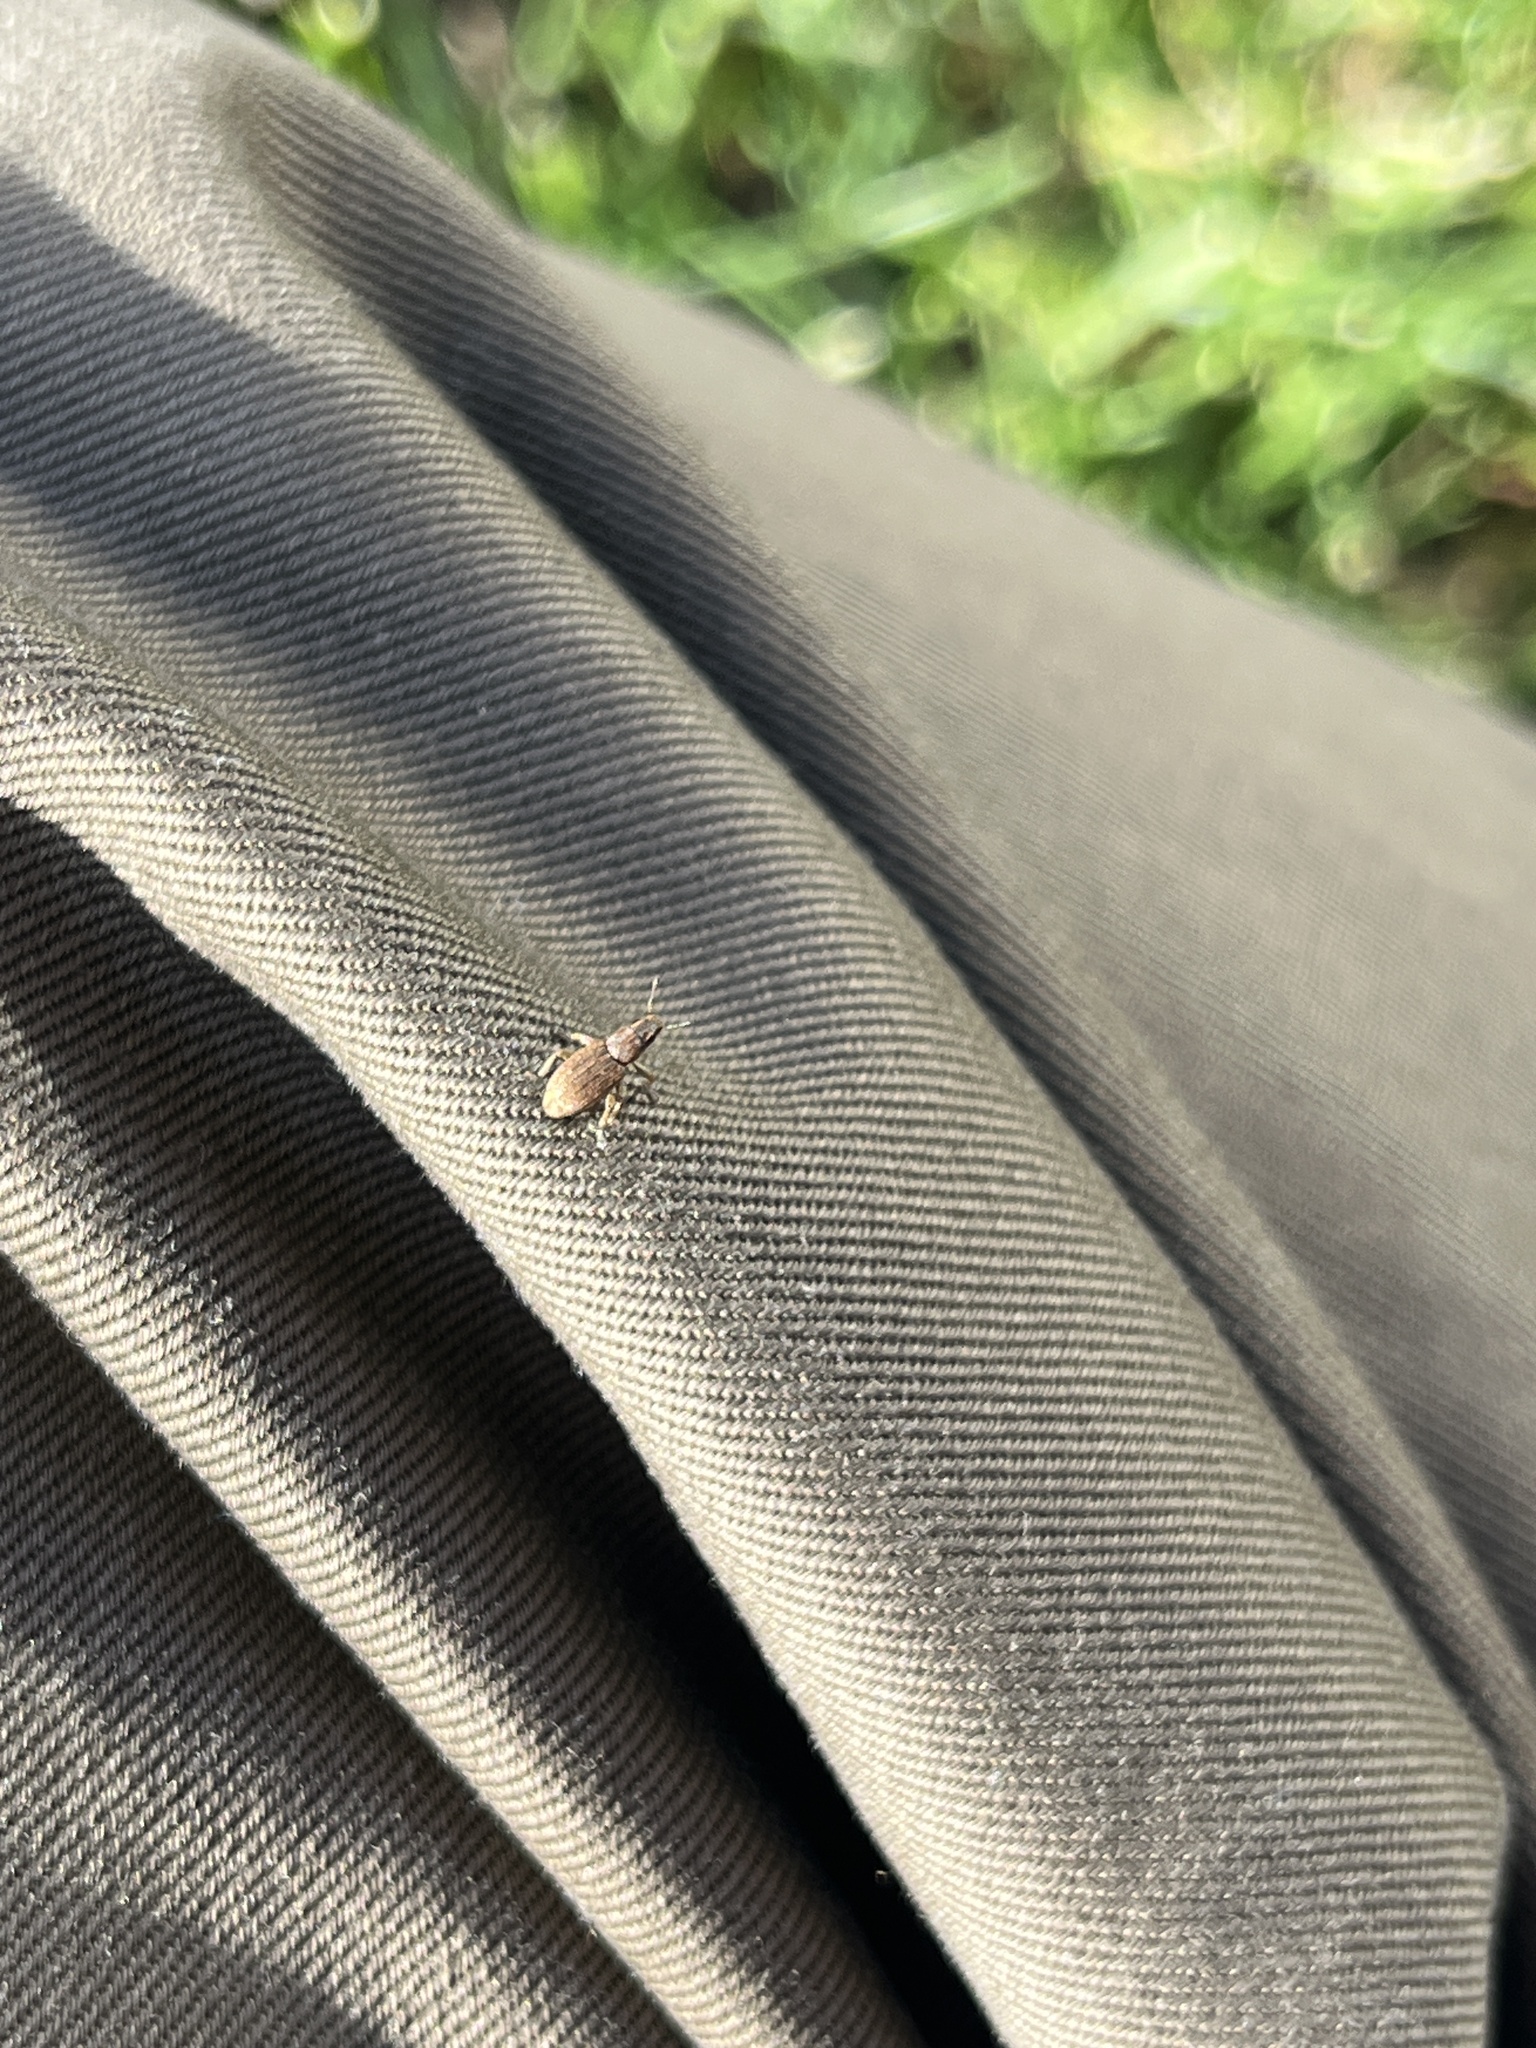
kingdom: Animalia
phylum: Arthropoda
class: Insecta
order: Coleoptera
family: Curculionidae
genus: Sitona
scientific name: Sitona cylindricollis
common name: Weevil
